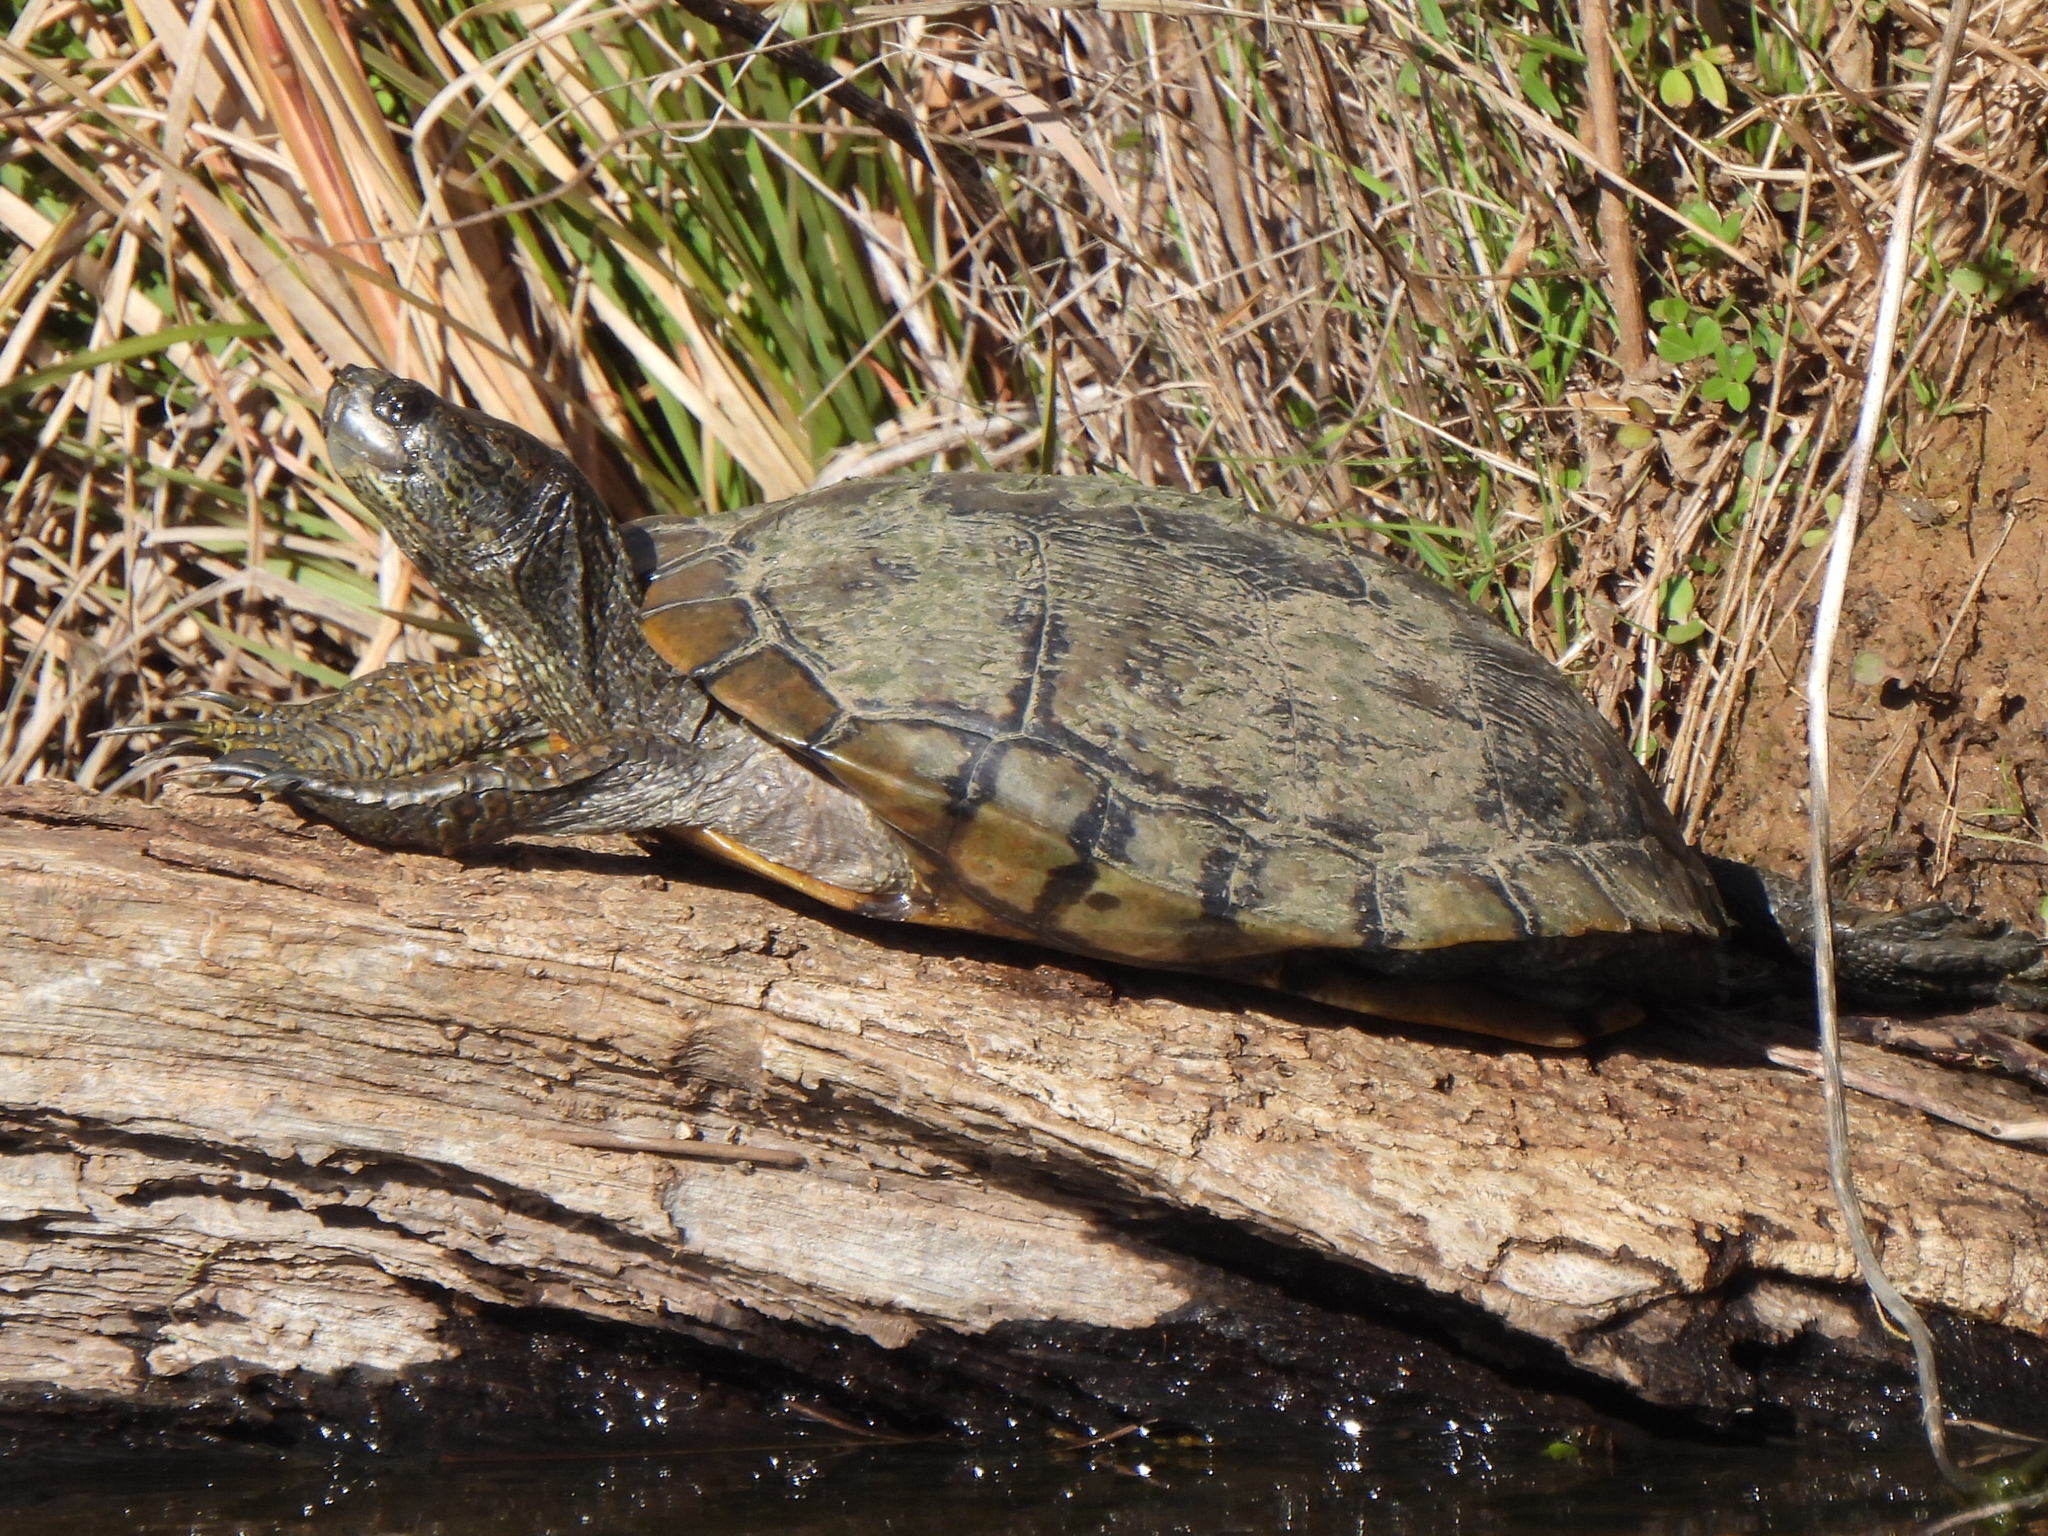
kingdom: Animalia
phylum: Chordata
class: Testudines
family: Emydidae
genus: Trachemys
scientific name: Trachemys scripta
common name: Slider
